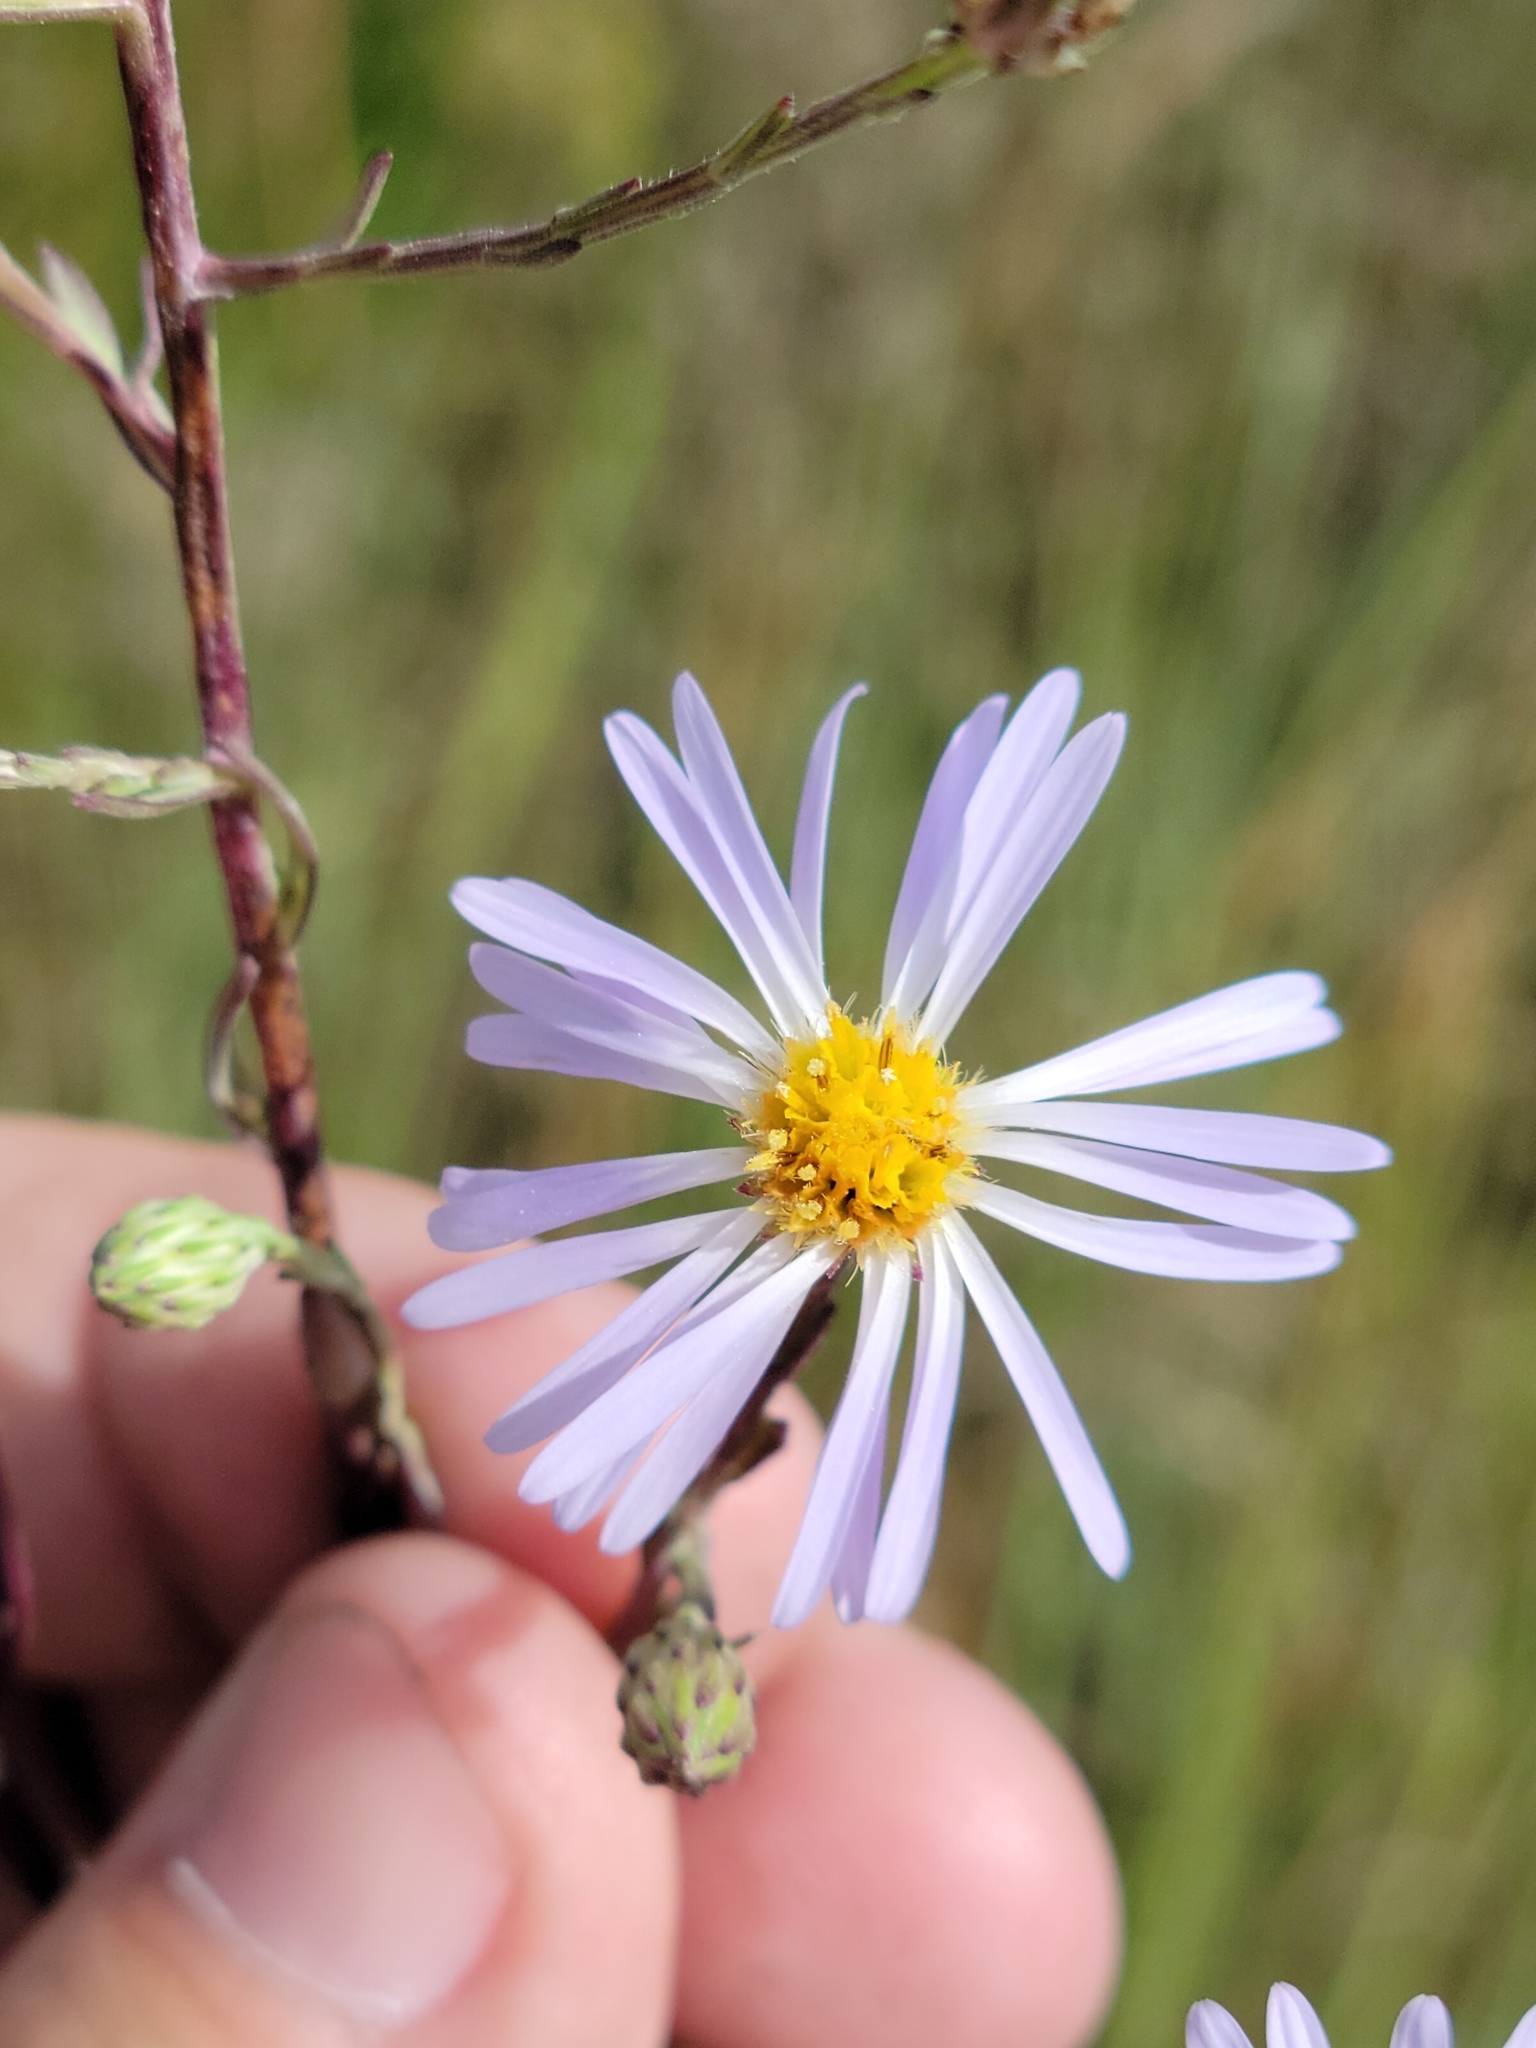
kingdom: Plantae
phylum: Tracheophyta
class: Magnoliopsida
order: Asterales
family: Asteraceae
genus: Symphyotrichum
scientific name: Symphyotrichum subulatum
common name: Annual saltmarsh aster
